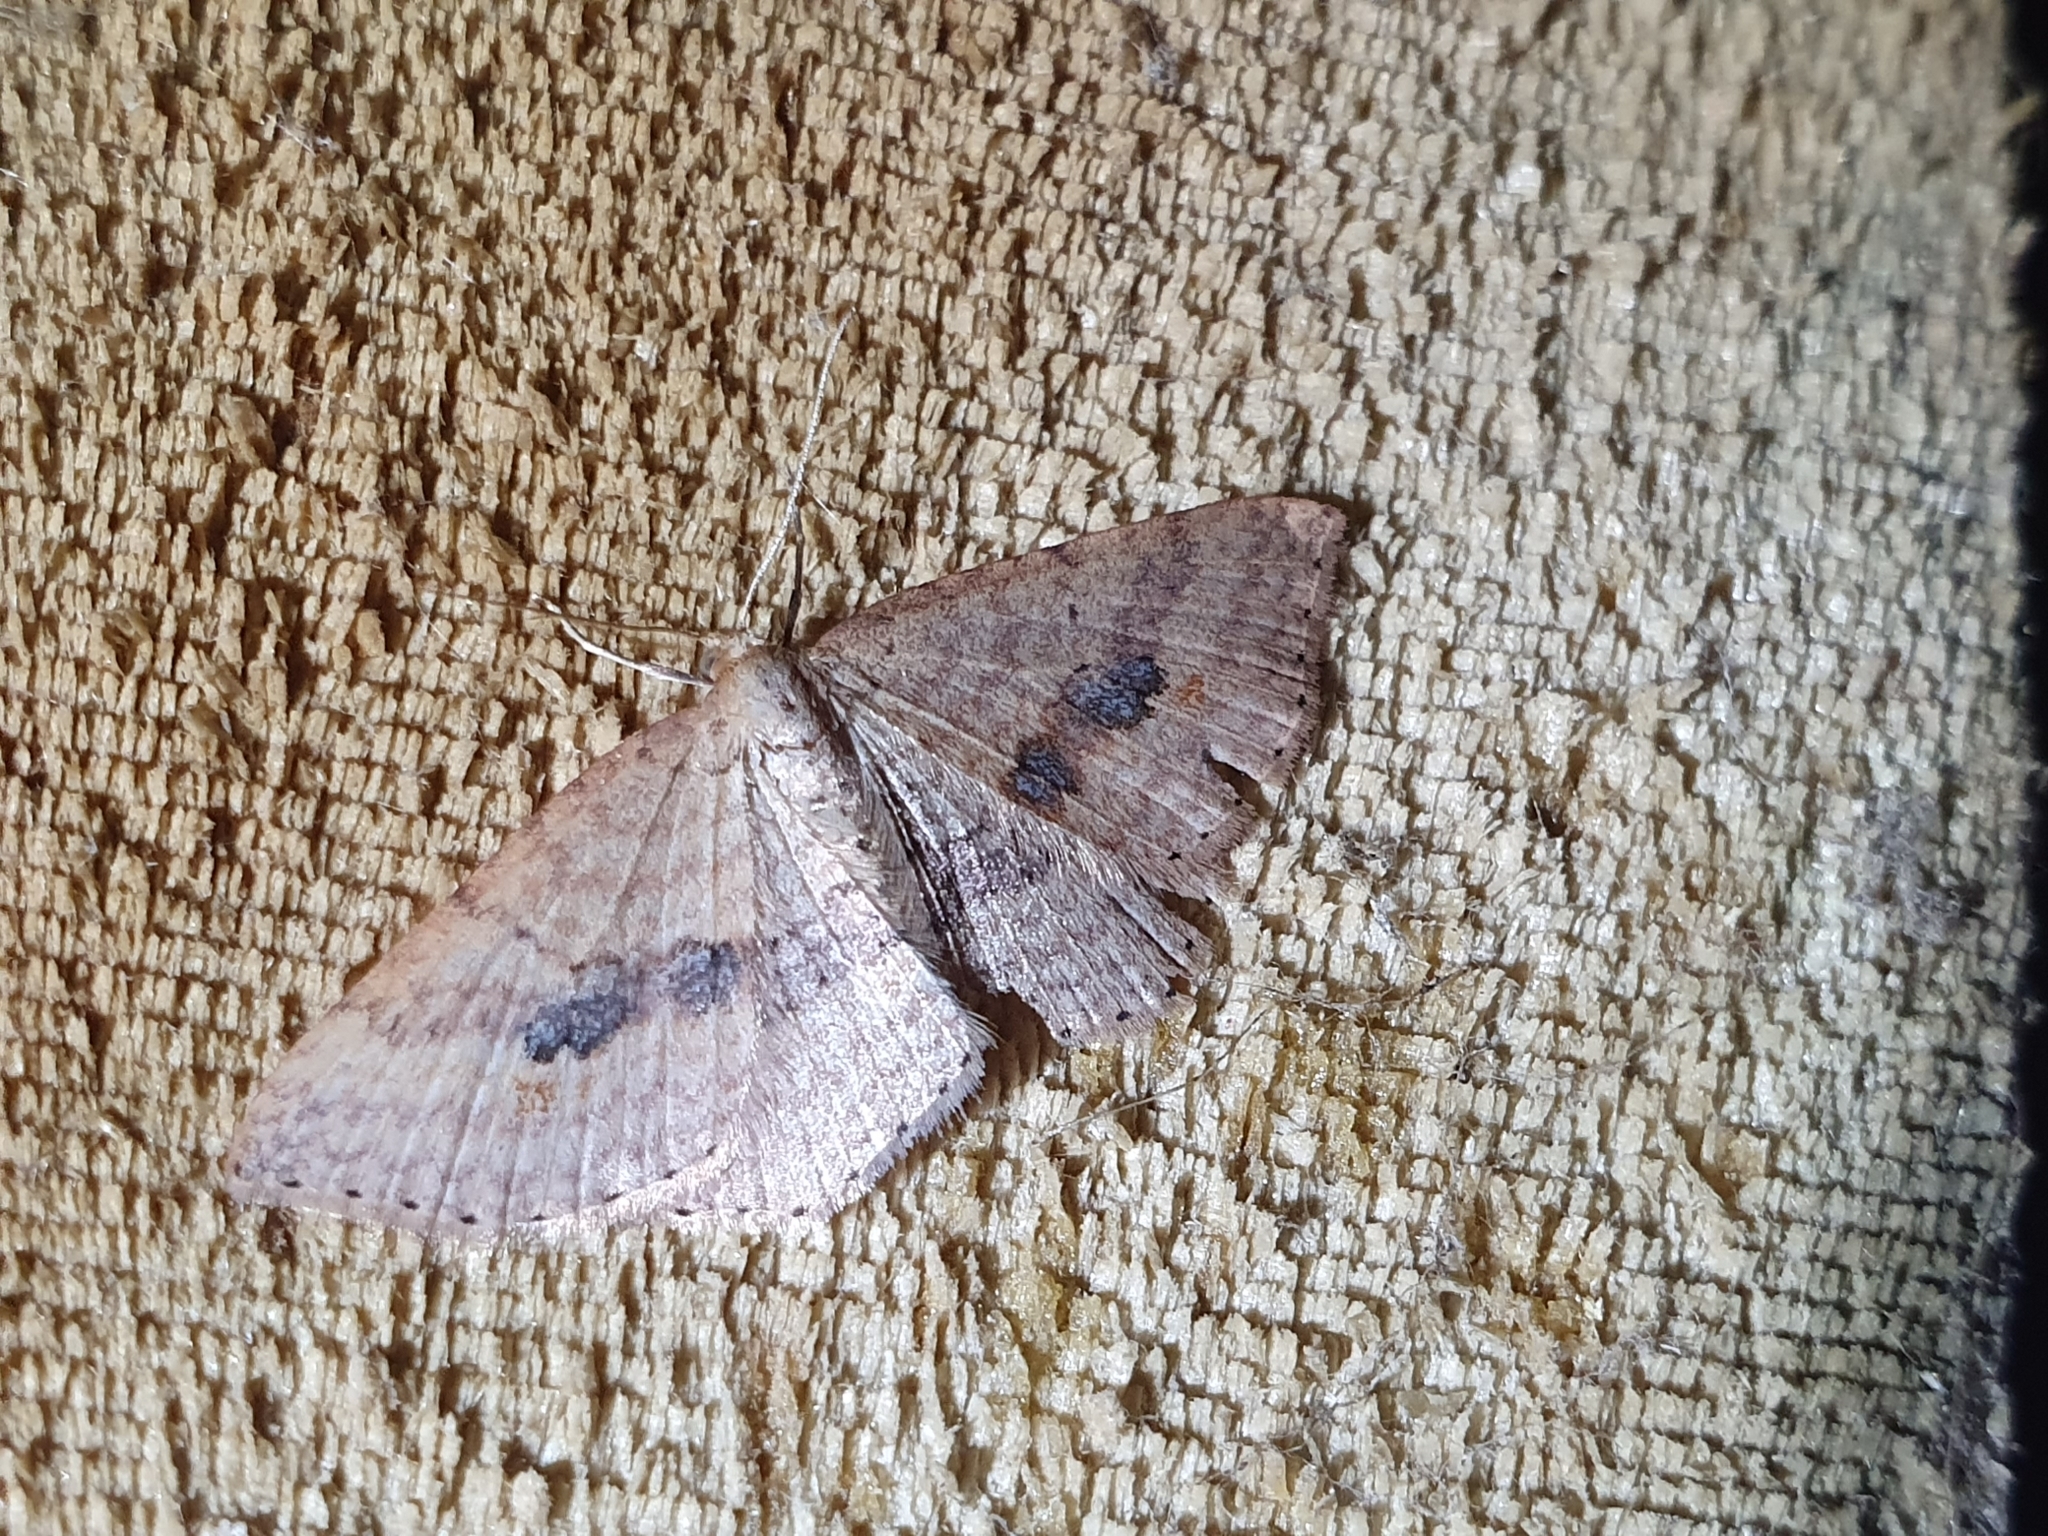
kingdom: Animalia
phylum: Arthropoda
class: Insecta
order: Lepidoptera
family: Geometridae
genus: Epicyme
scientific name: Epicyme rubropunctaria
